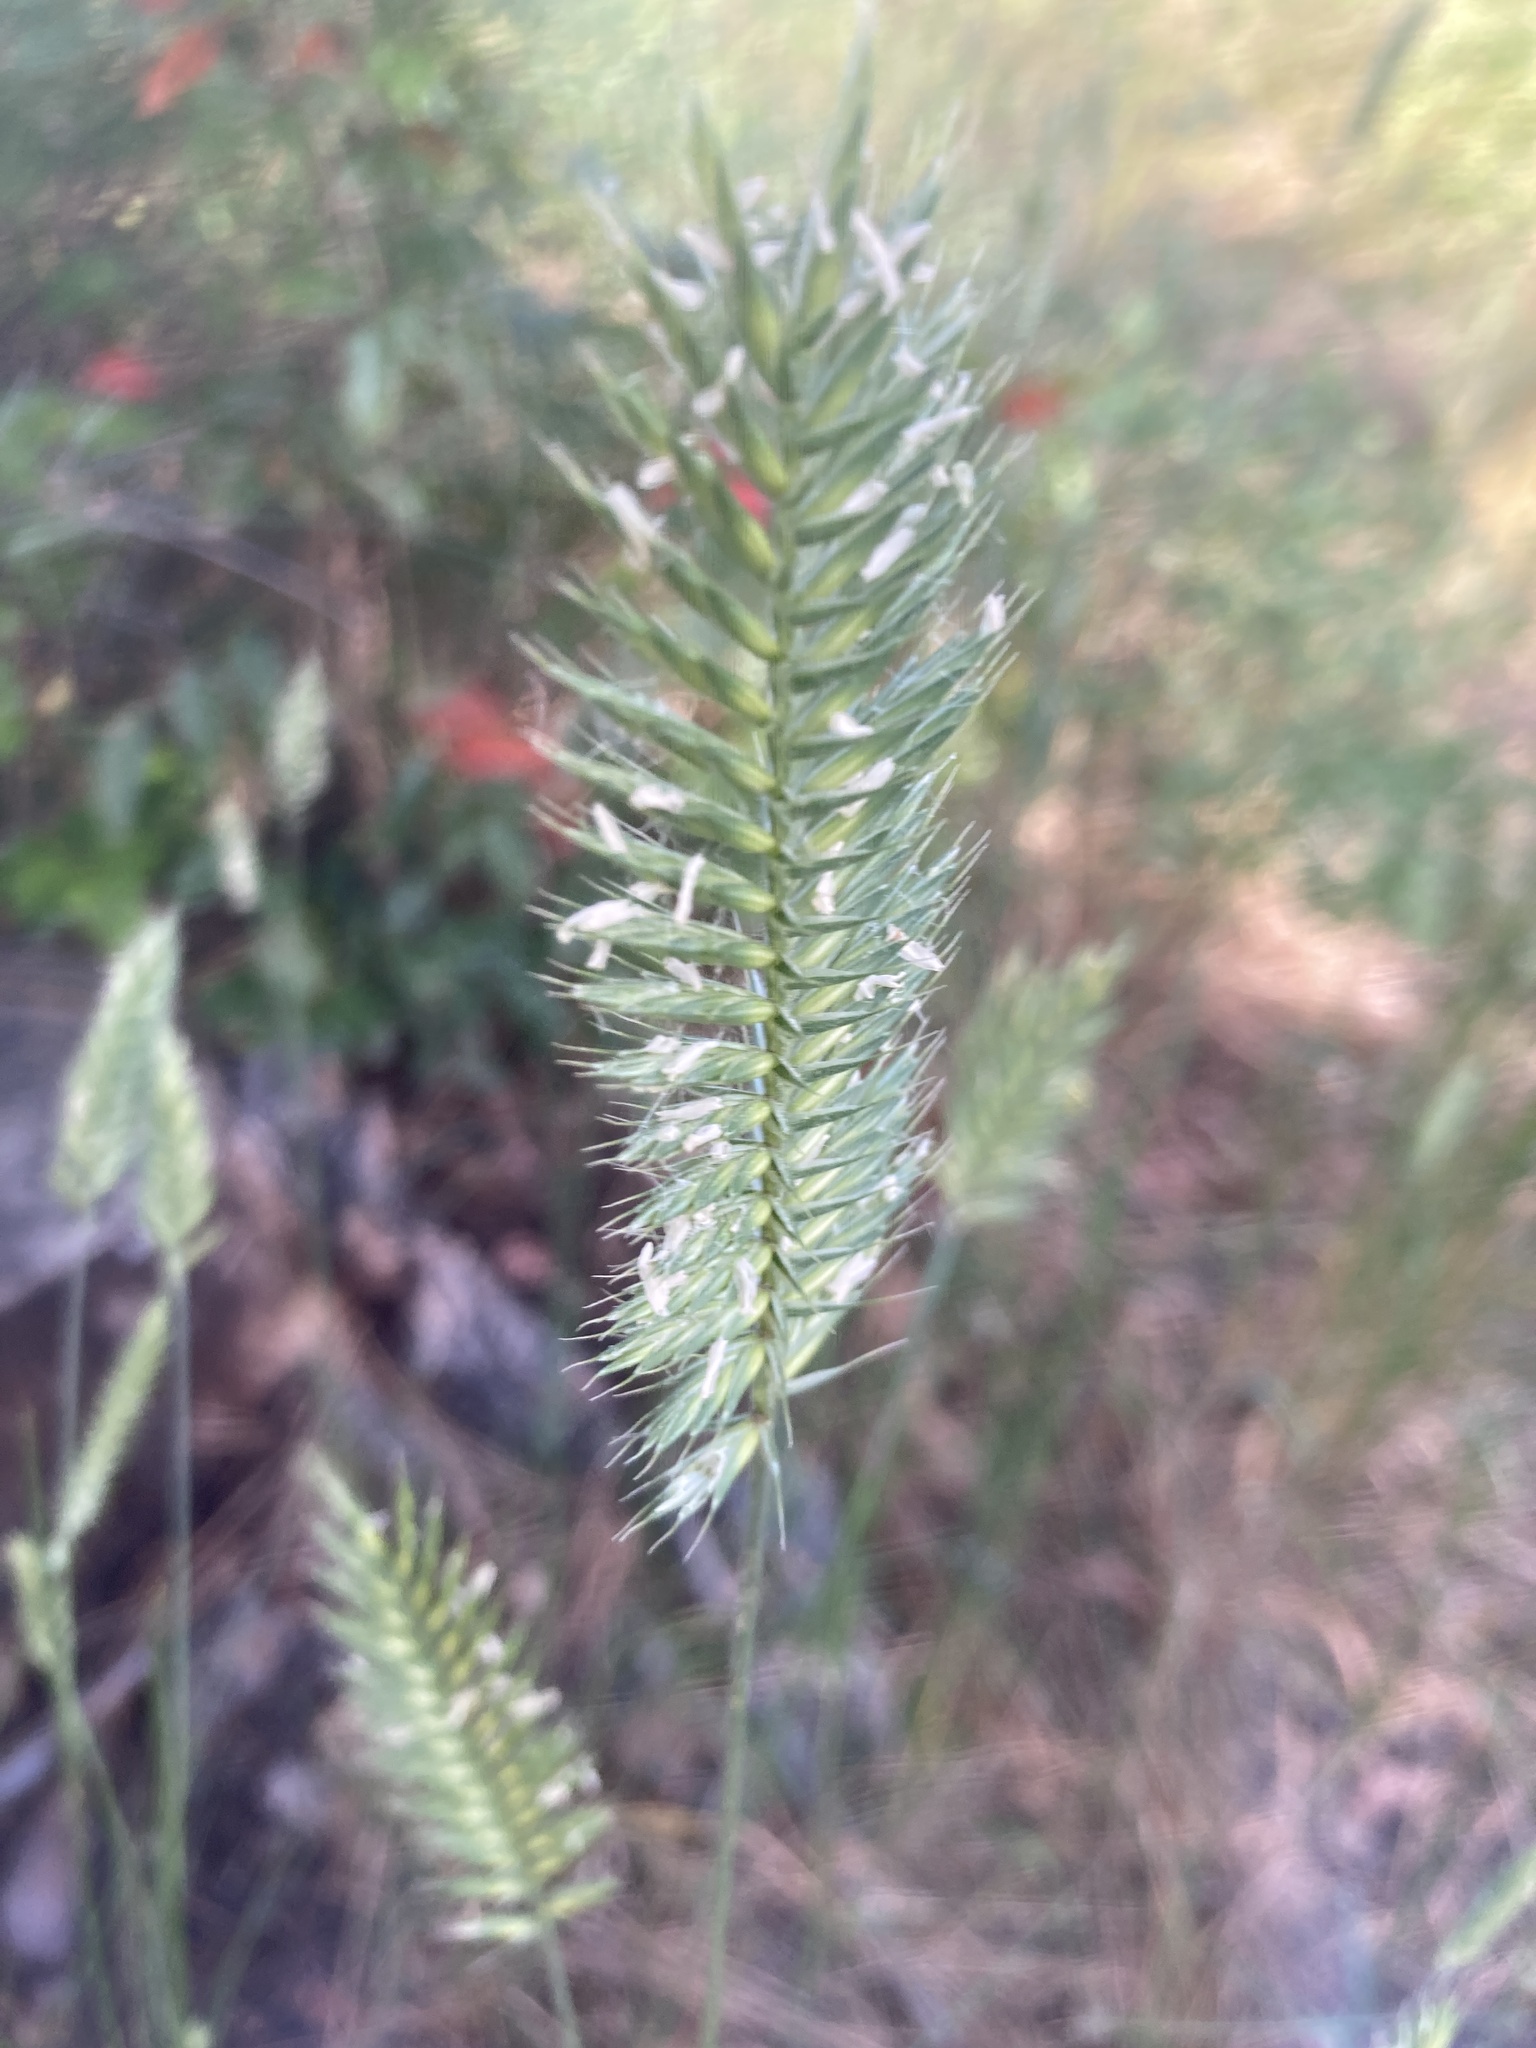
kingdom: Plantae
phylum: Tracheophyta
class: Liliopsida
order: Poales
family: Poaceae
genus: Agropyron
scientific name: Agropyron cristatum
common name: Crested wheatgrass
